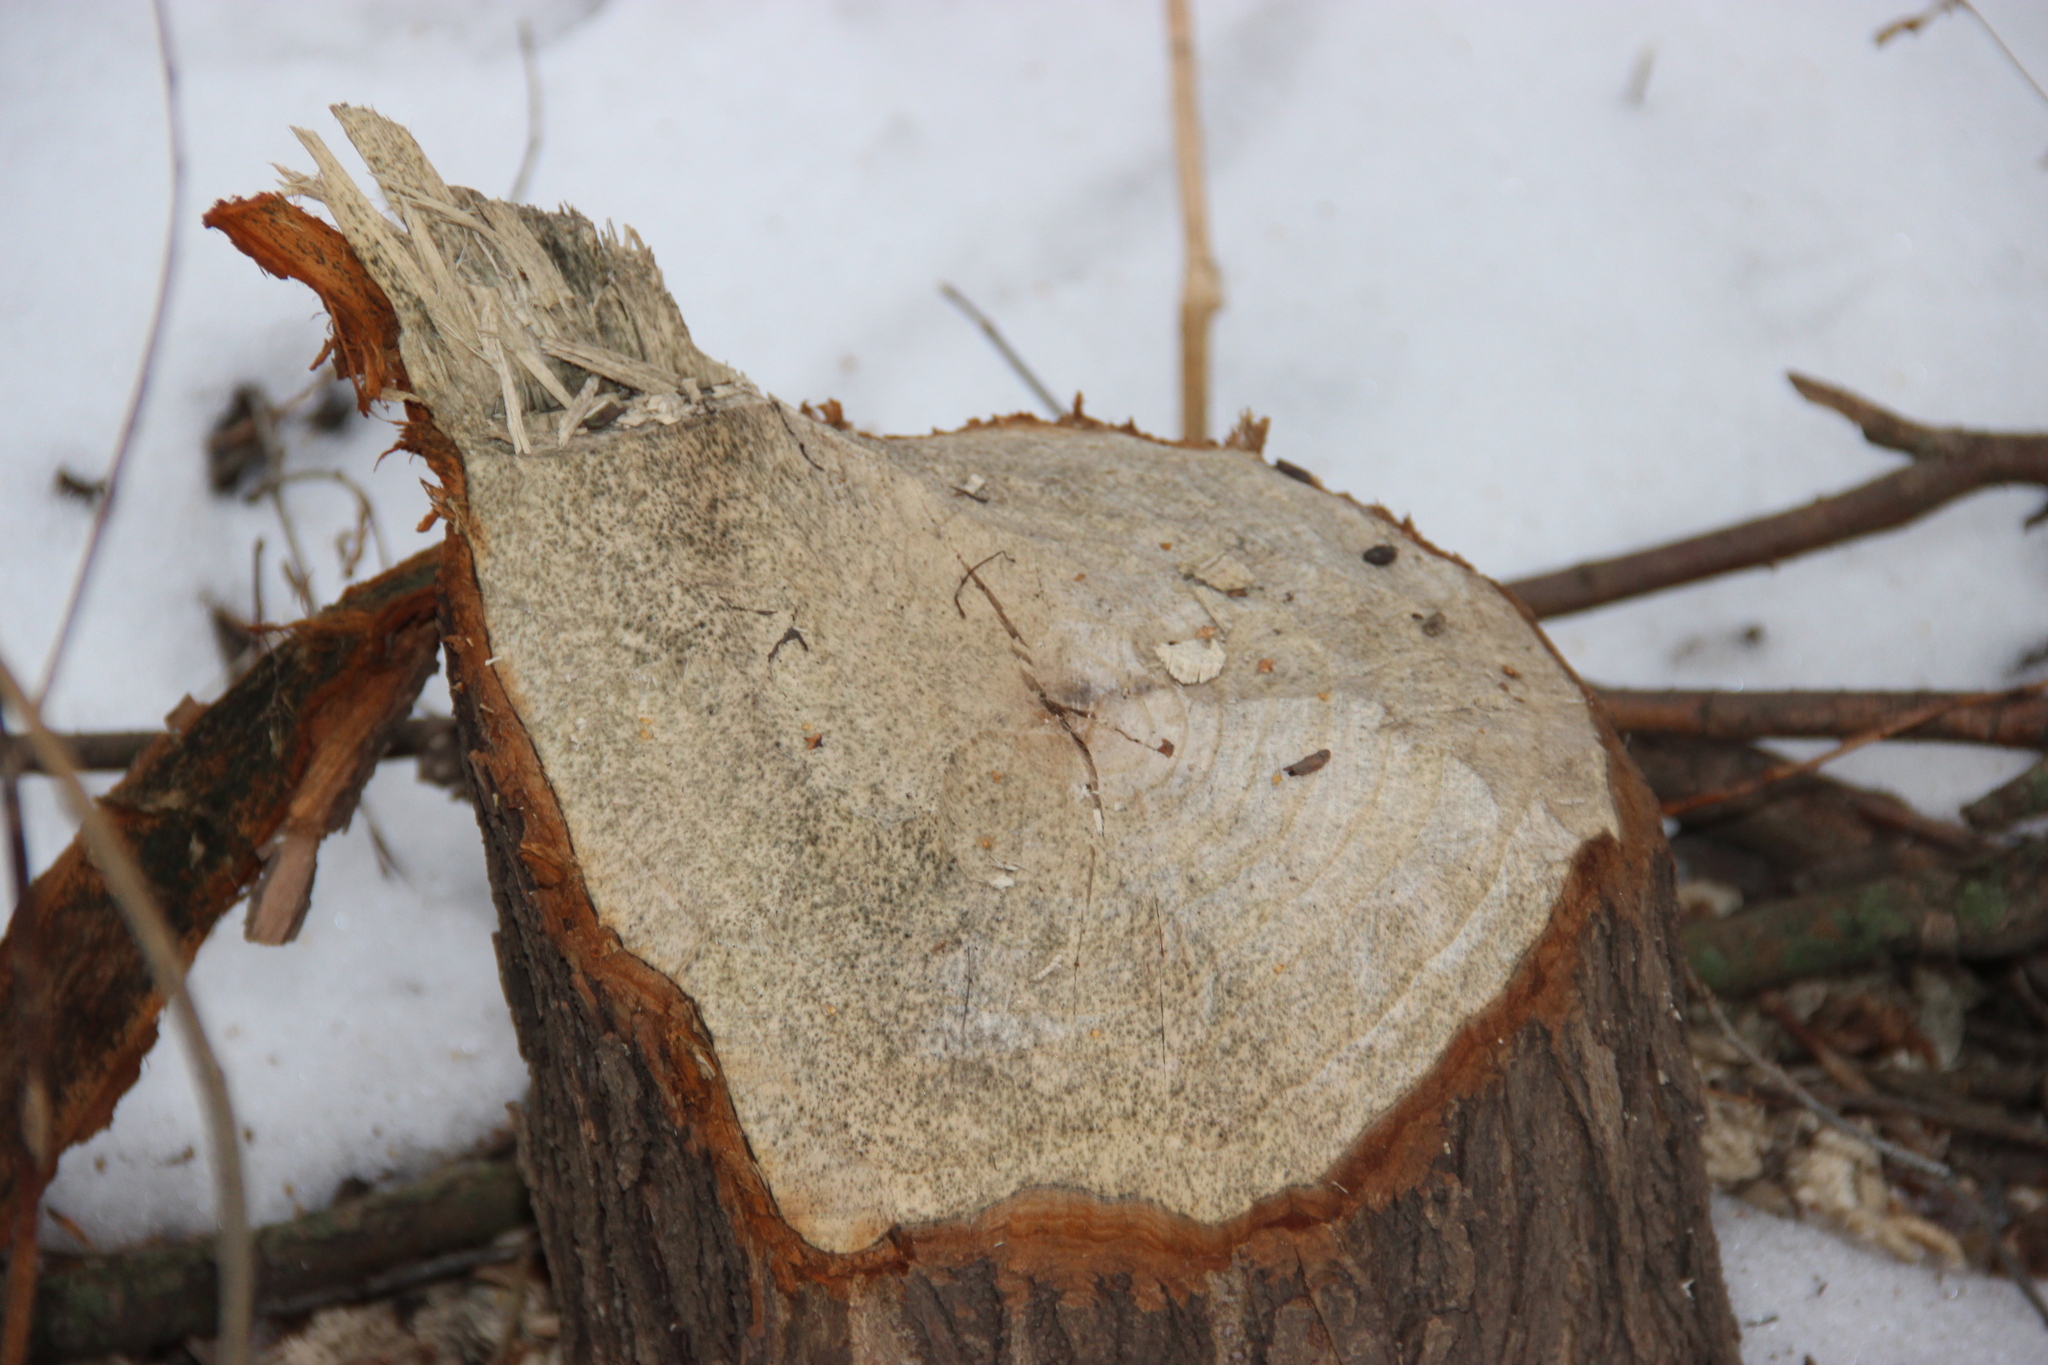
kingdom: Animalia
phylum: Chordata
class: Mammalia
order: Rodentia
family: Castoridae
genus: Castor
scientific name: Castor fiber
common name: Eurasian beaver
